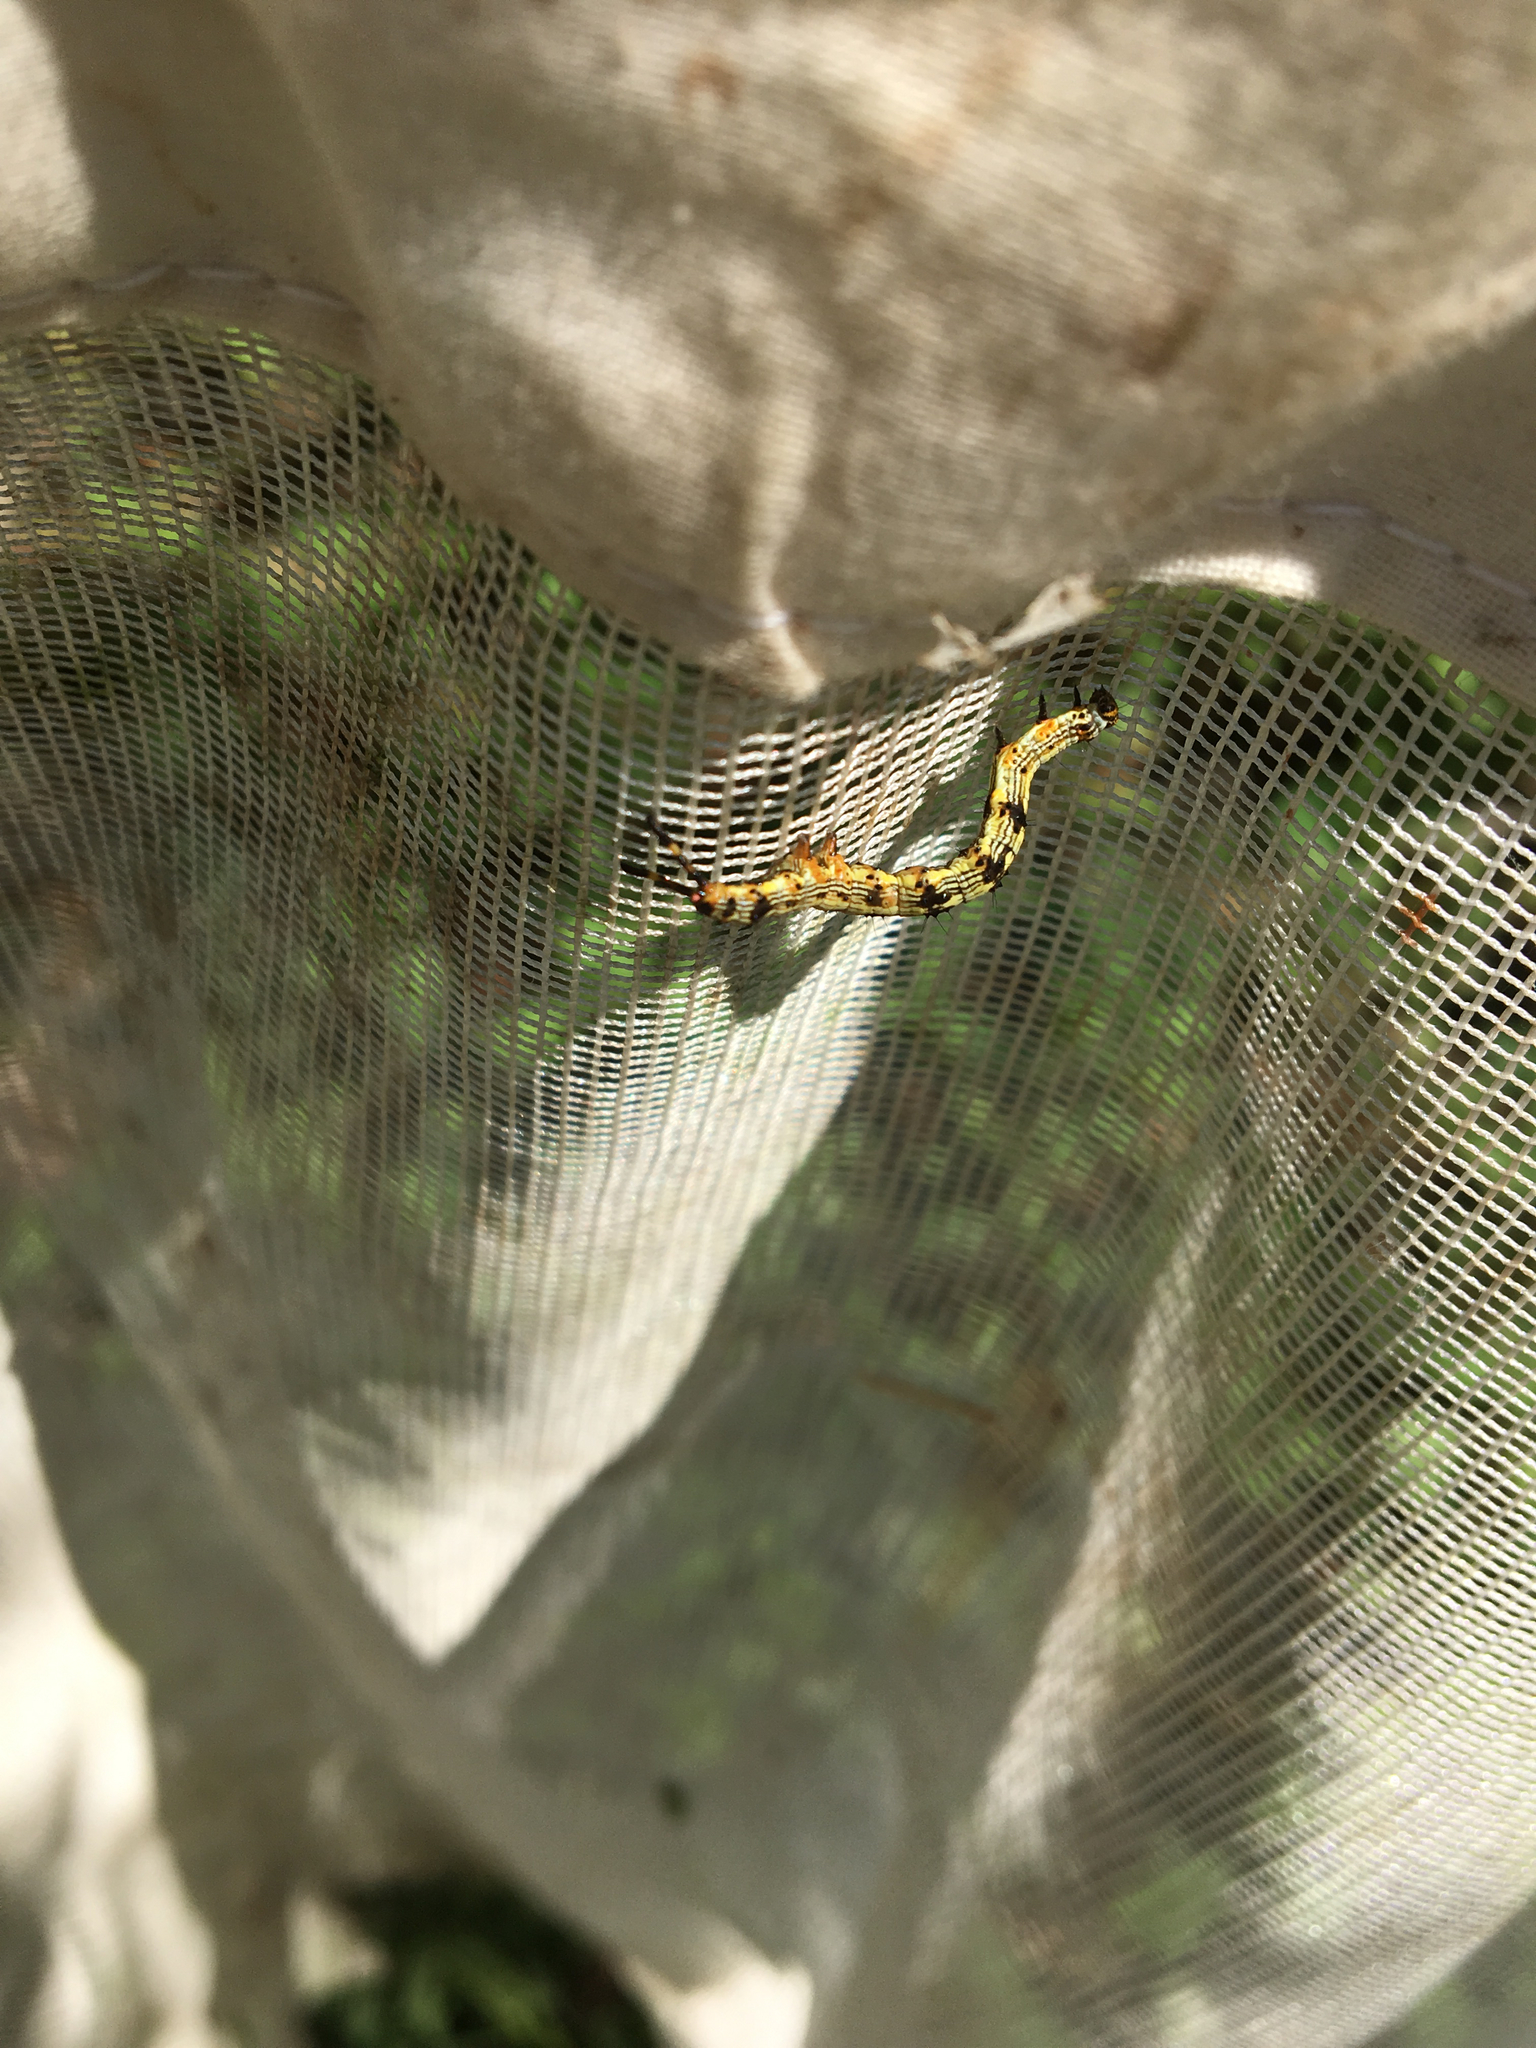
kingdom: Animalia
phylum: Arthropoda
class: Insecta
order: Lepidoptera
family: Erebidae
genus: Selenisa
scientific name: Selenisa sueroides
